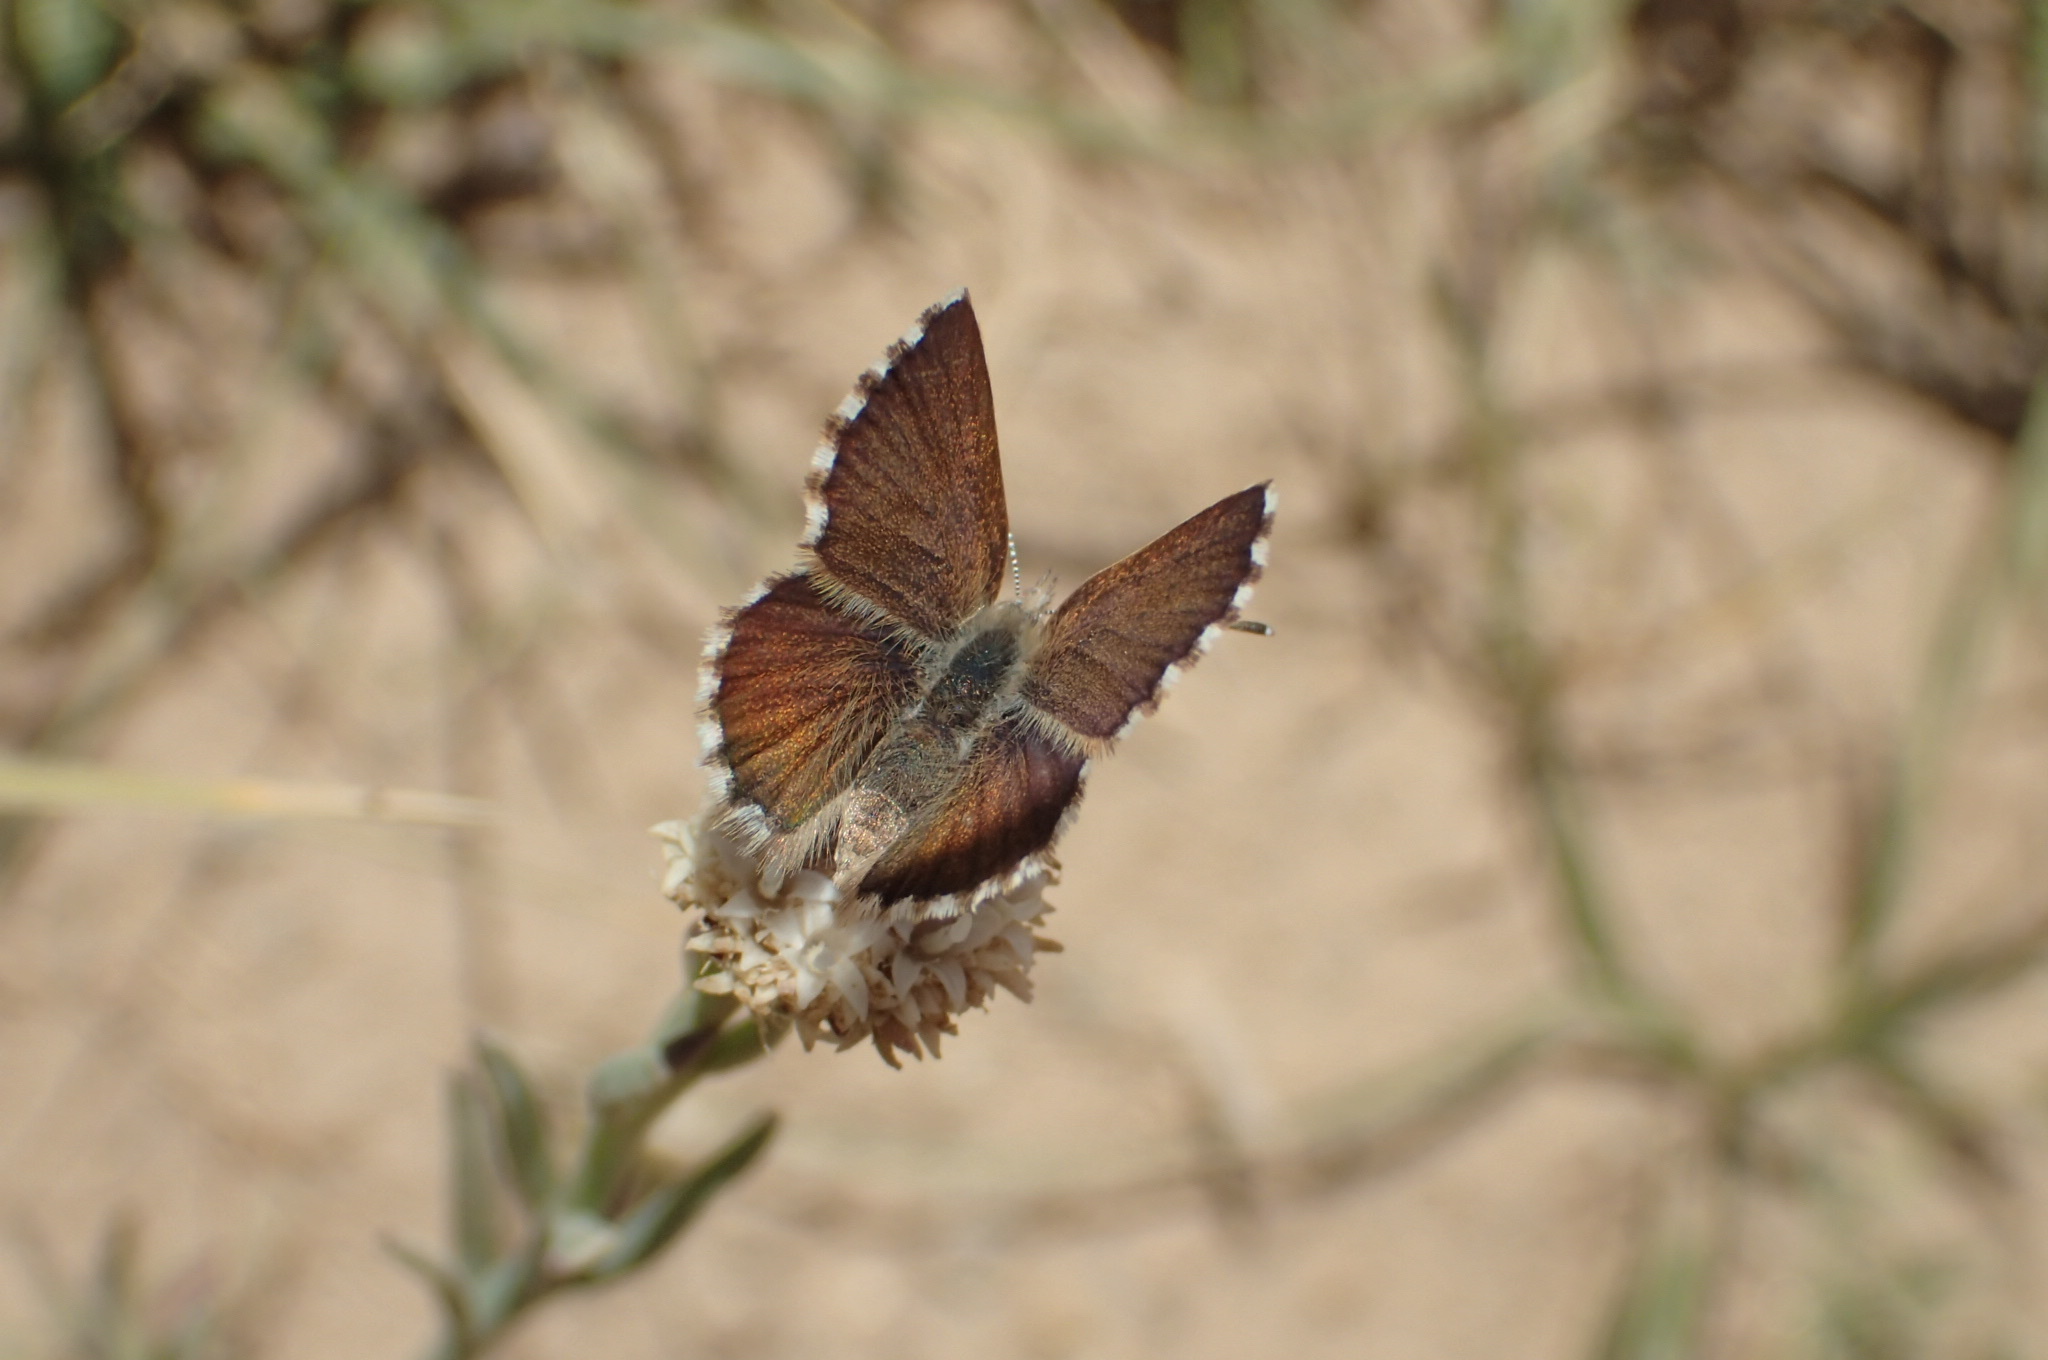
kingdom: Animalia
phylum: Arthropoda
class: Insecta
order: Lepidoptera
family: Lycaenidae
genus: Itylos
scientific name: Itylos vapa
